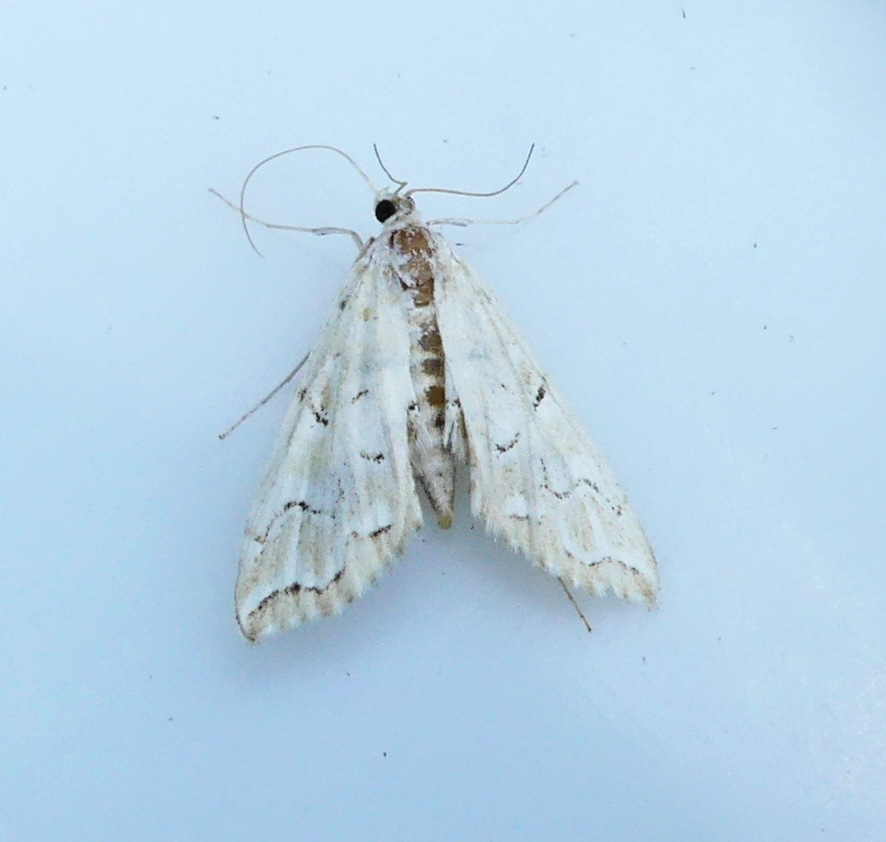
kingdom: Animalia
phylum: Arthropoda
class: Insecta
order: Lepidoptera
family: Crambidae
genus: Elophila
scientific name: Elophila icciusalis
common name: Pondside pyralid moth
